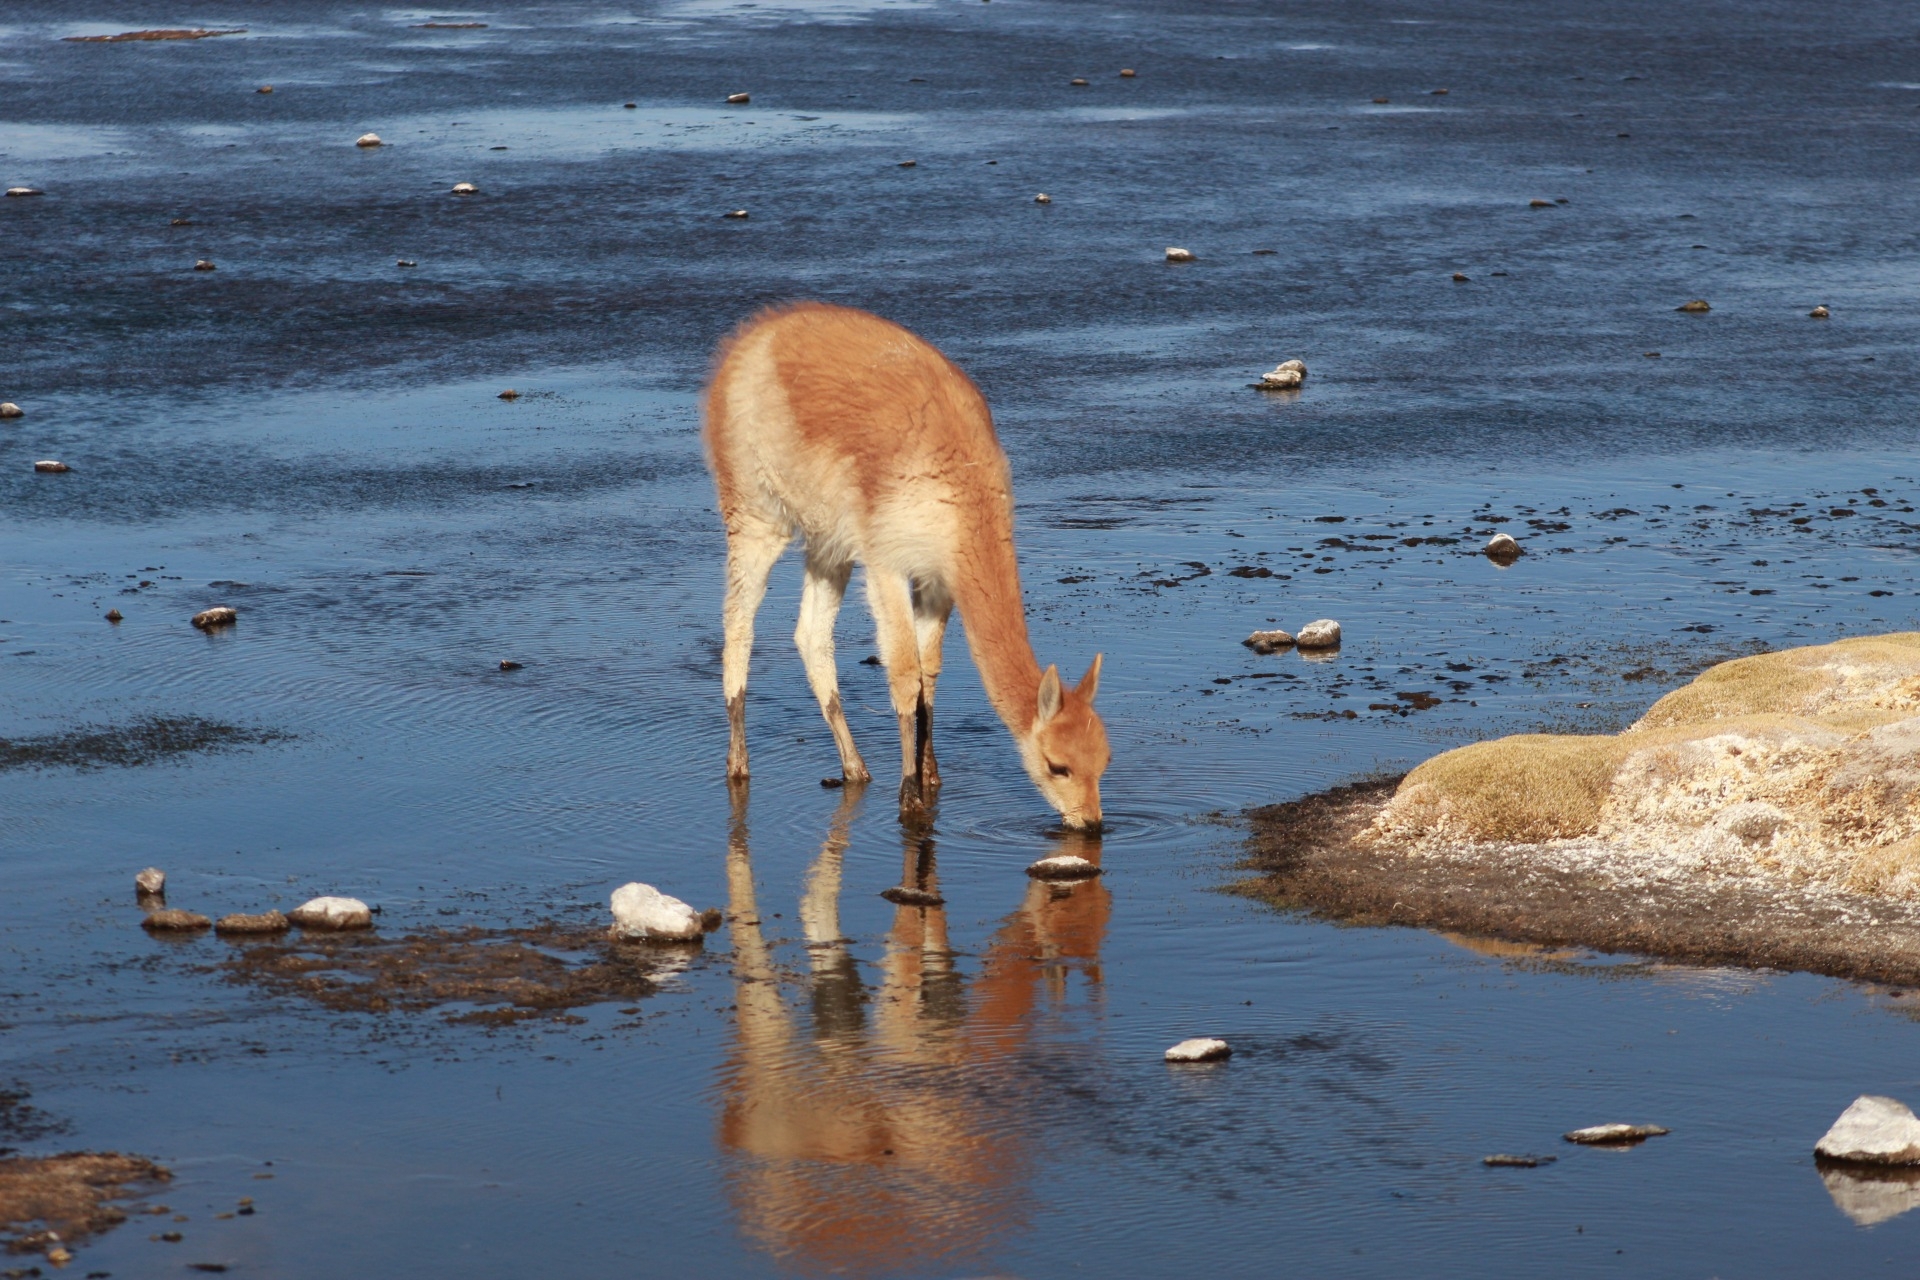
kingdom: Animalia
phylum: Chordata
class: Mammalia
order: Artiodactyla
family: Camelidae
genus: Vicugna
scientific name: Vicugna vicugna
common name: Vicugna
